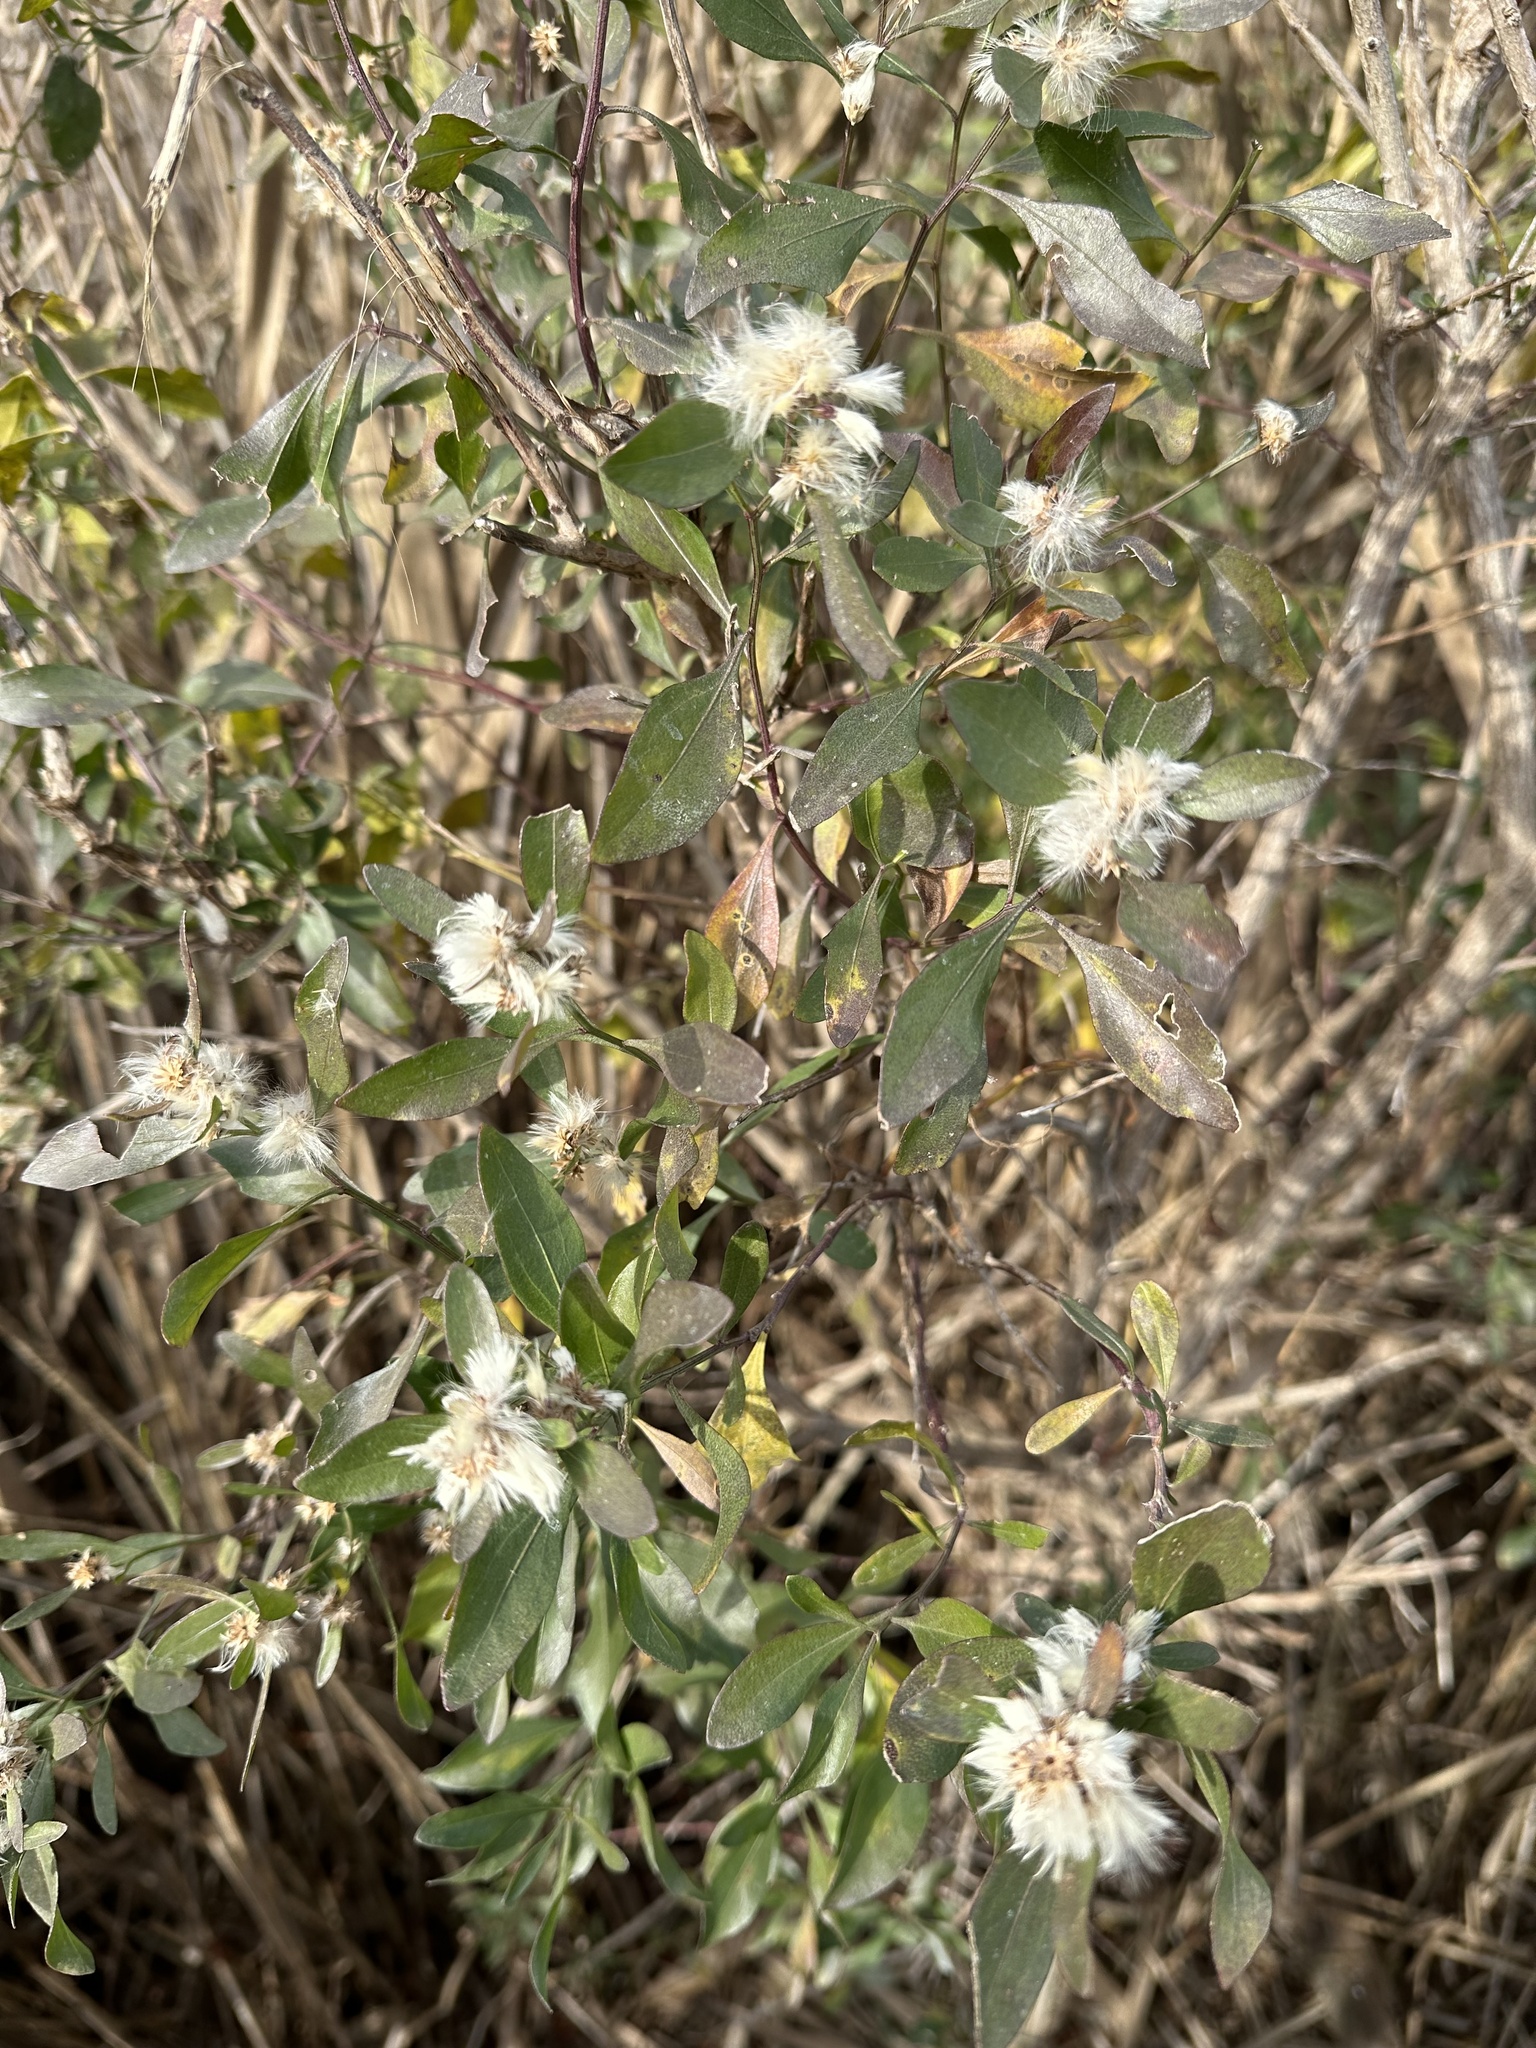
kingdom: Plantae
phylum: Tracheophyta
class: Magnoliopsida
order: Asterales
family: Asteraceae
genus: Baccharis
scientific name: Baccharis halimifolia
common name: Eastern baccharis
